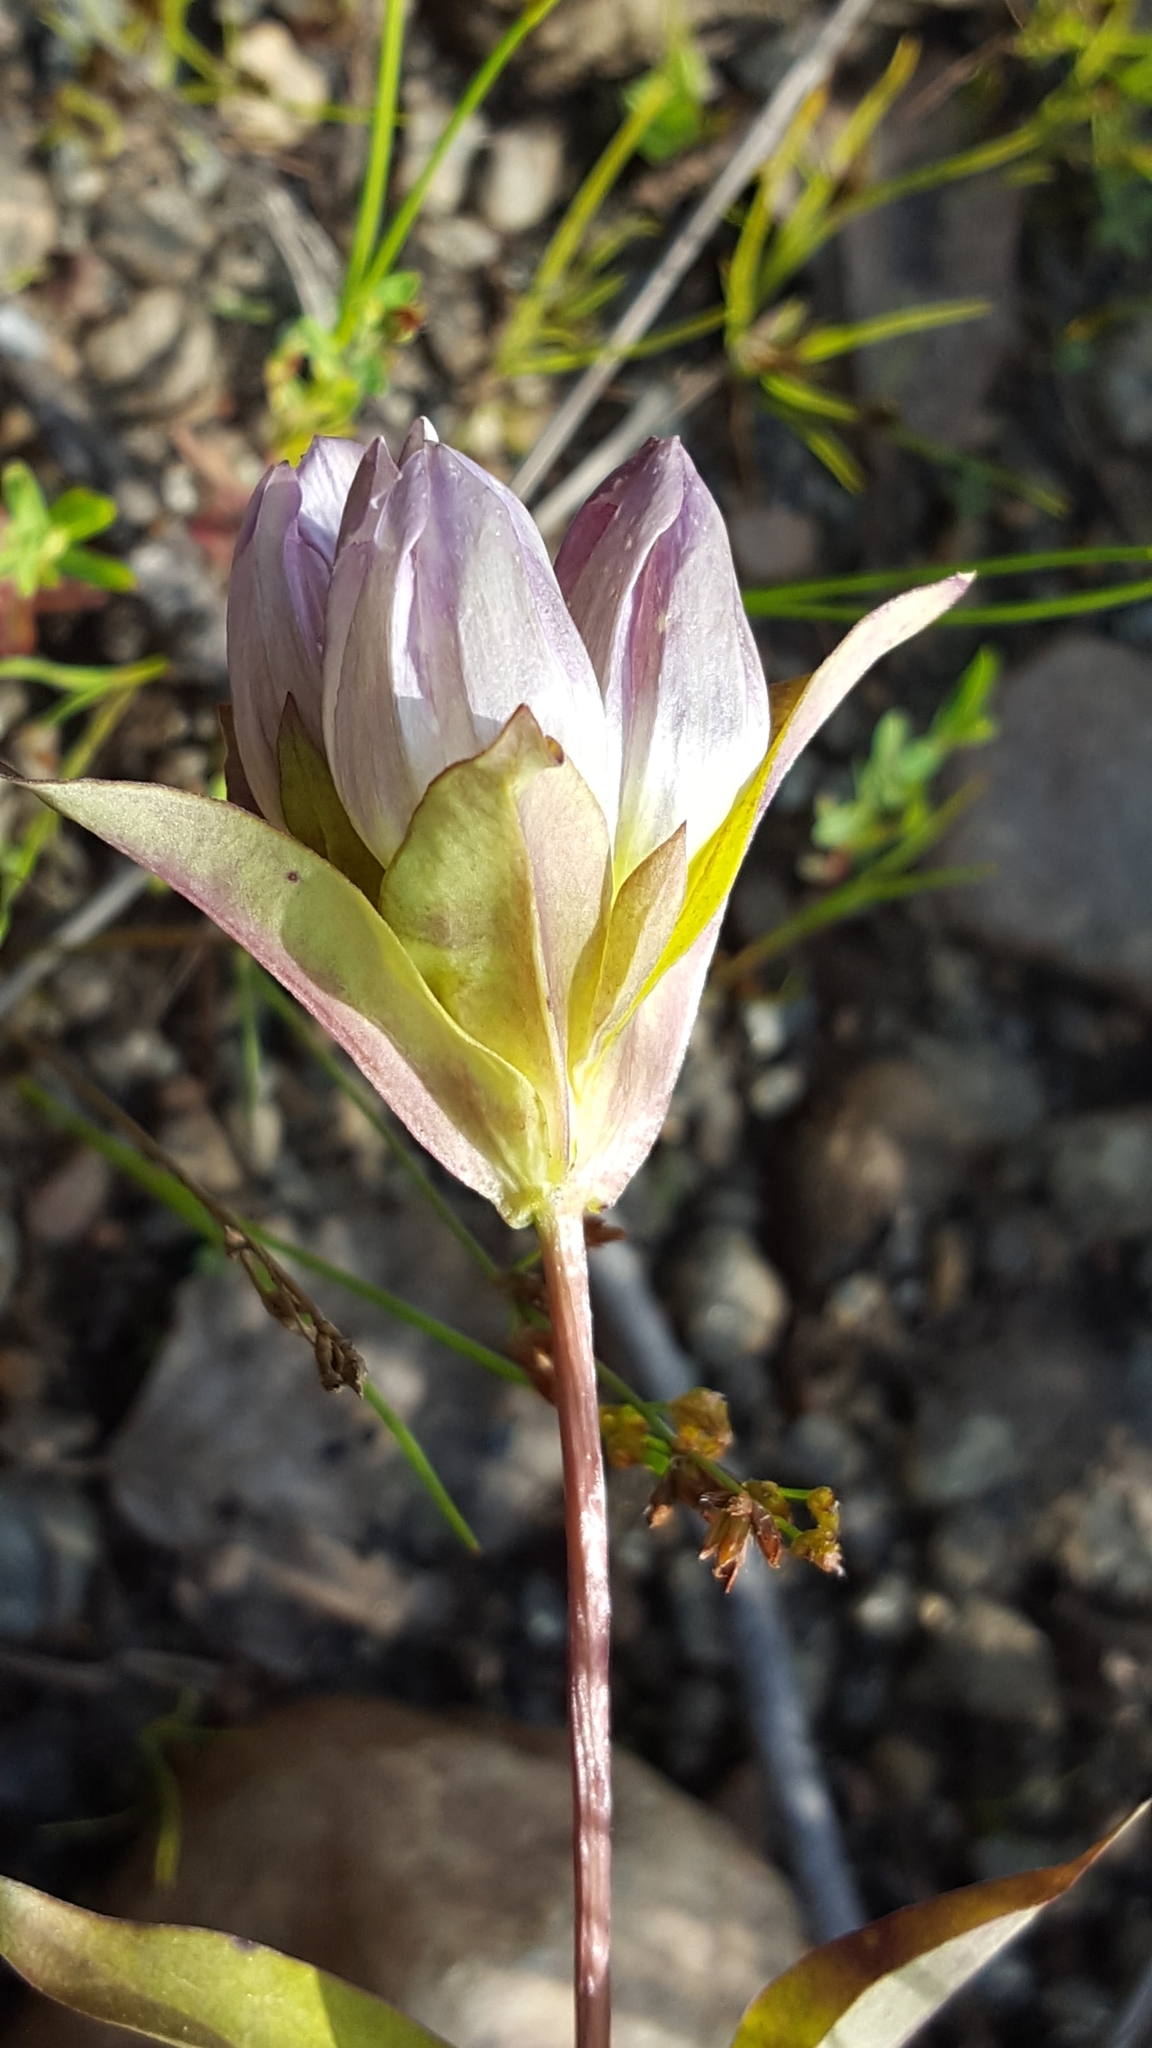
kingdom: Plantae
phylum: Tracheophyta
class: Magnoliopsida
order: Gentianales
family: Gentianaceae
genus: Gentiana
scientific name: Gentiana rubricaulis
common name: Purple-stemmed gentian
